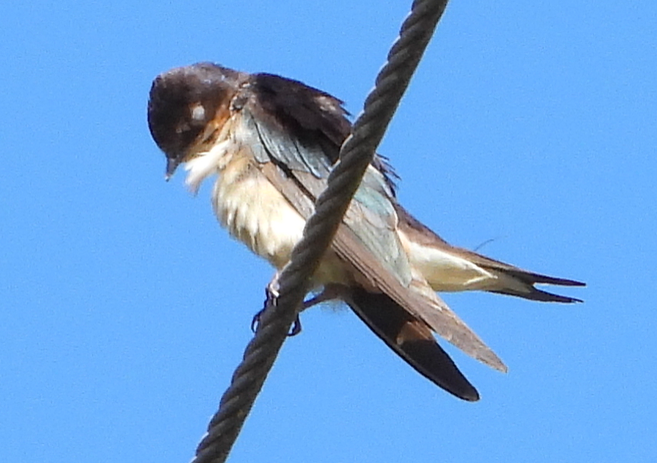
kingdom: Animalia
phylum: Chordata
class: Aves
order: Passeriformes
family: Hirundinidae
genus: Notiochelidon
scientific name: Notiochelidon pileata
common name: Black-capped swallow
